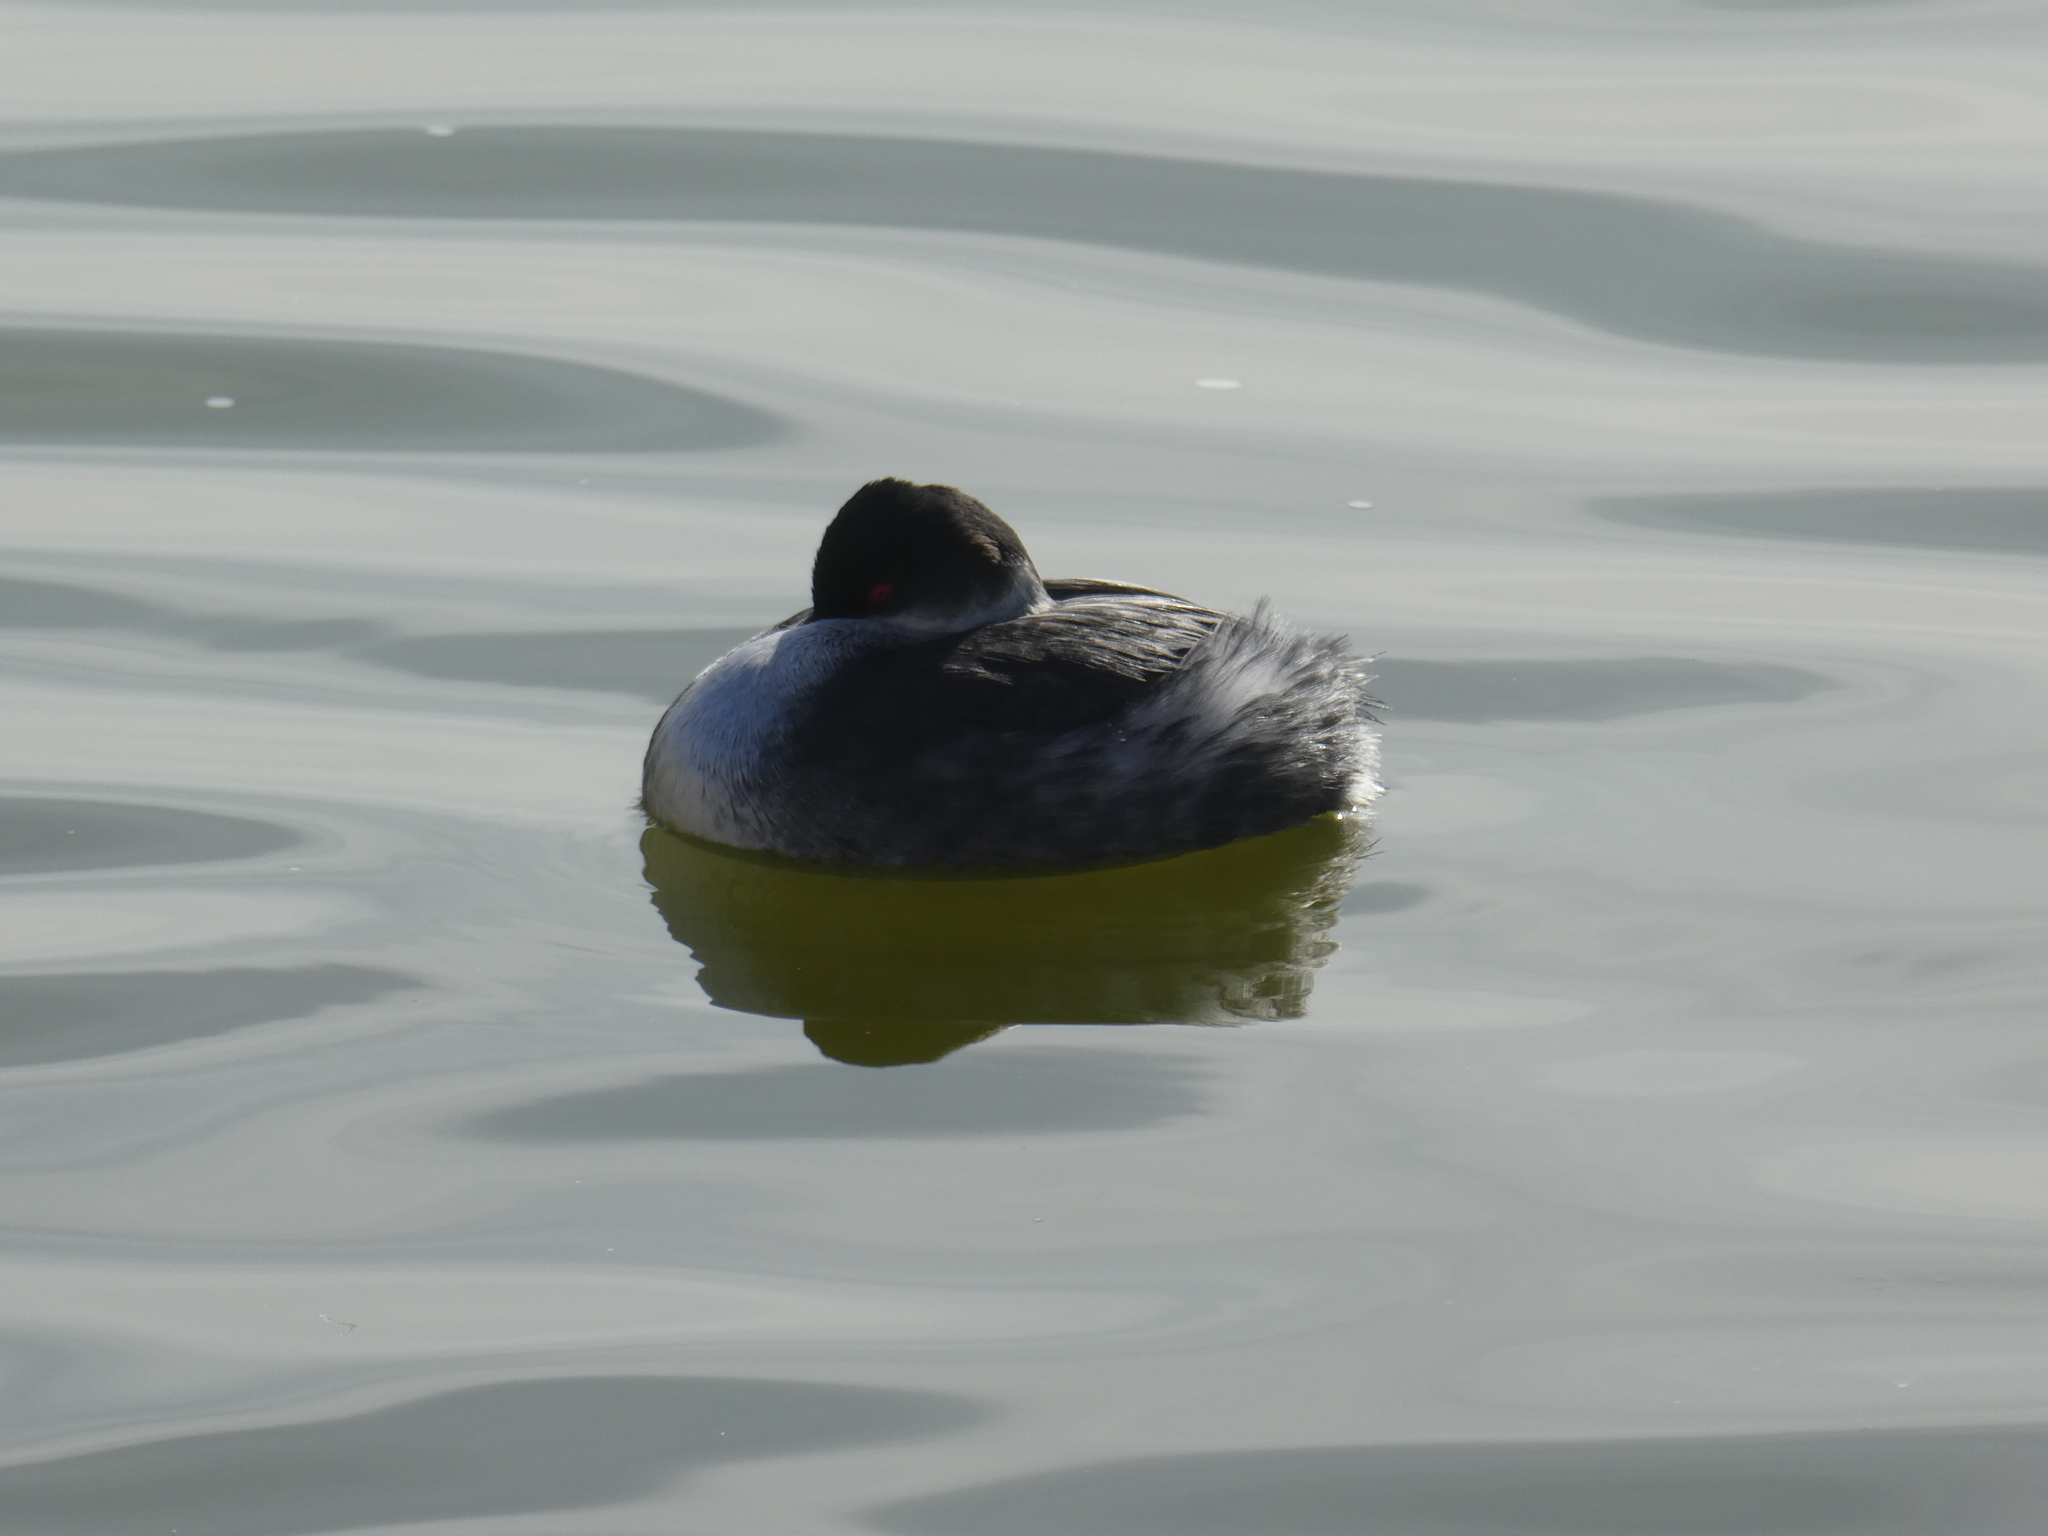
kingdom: Animalia
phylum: Chordata
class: Aves
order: Podicipediformes
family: Podicipedidae
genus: Podiceps
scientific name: Podiceps nigricollis
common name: Black-necked grebe
